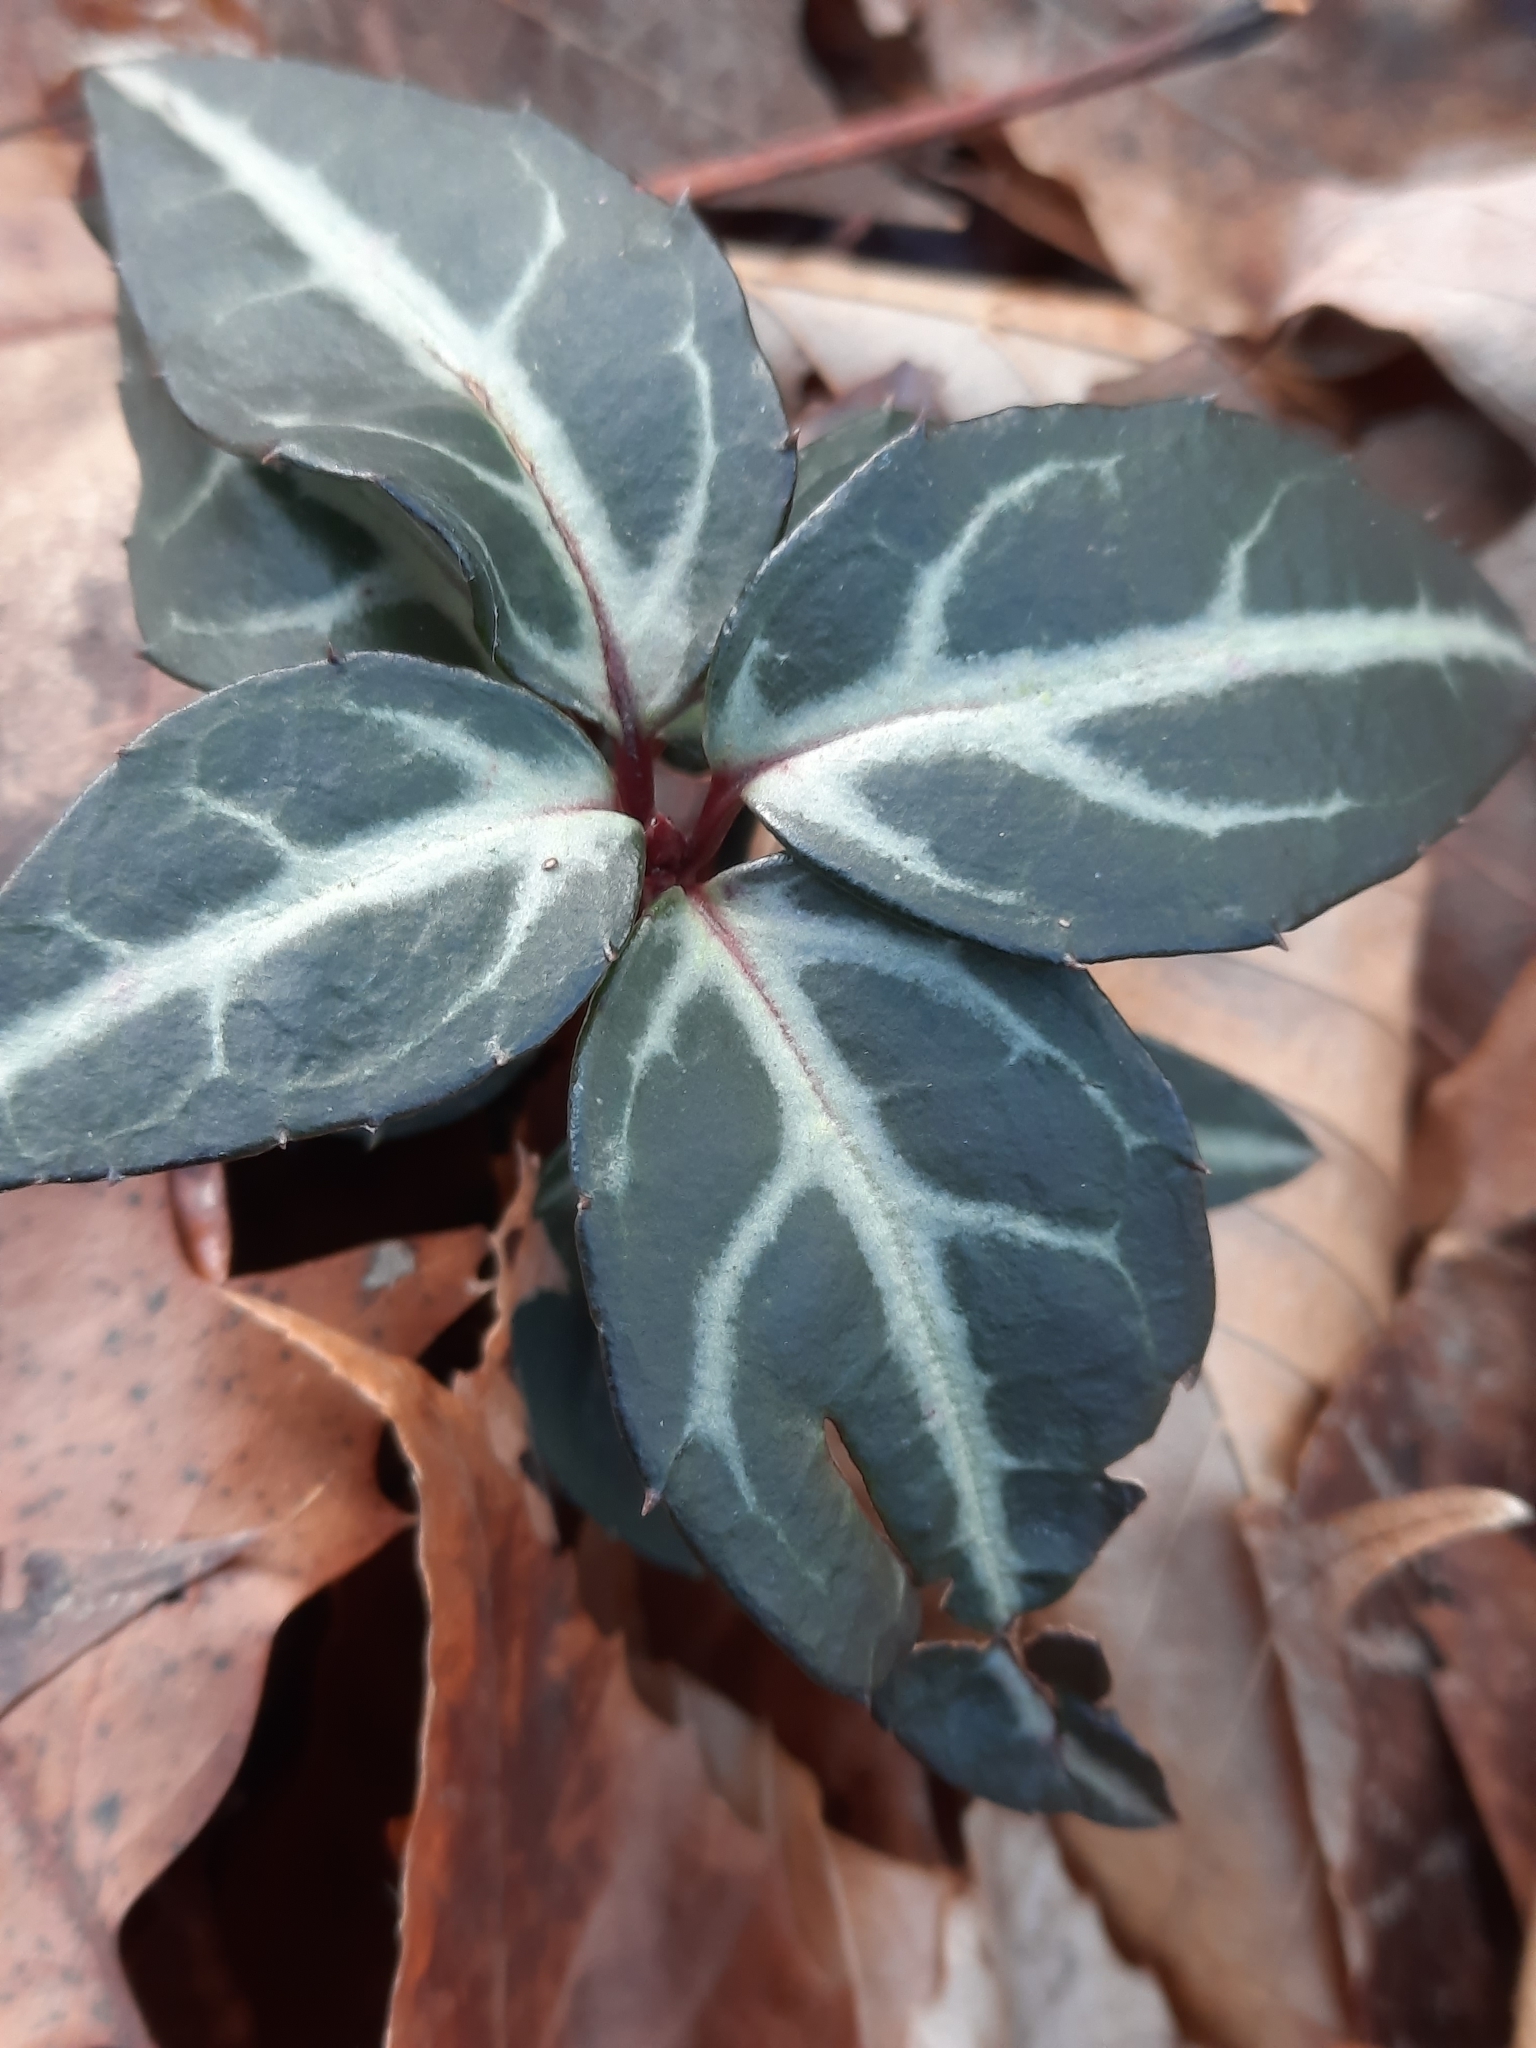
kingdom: Plantae
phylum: Tracheophyta
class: Magnoliopsida
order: Ericales
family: Ericaceae
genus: Chimaphila
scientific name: Chimaphila maculata
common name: Spotted pipsissewa
